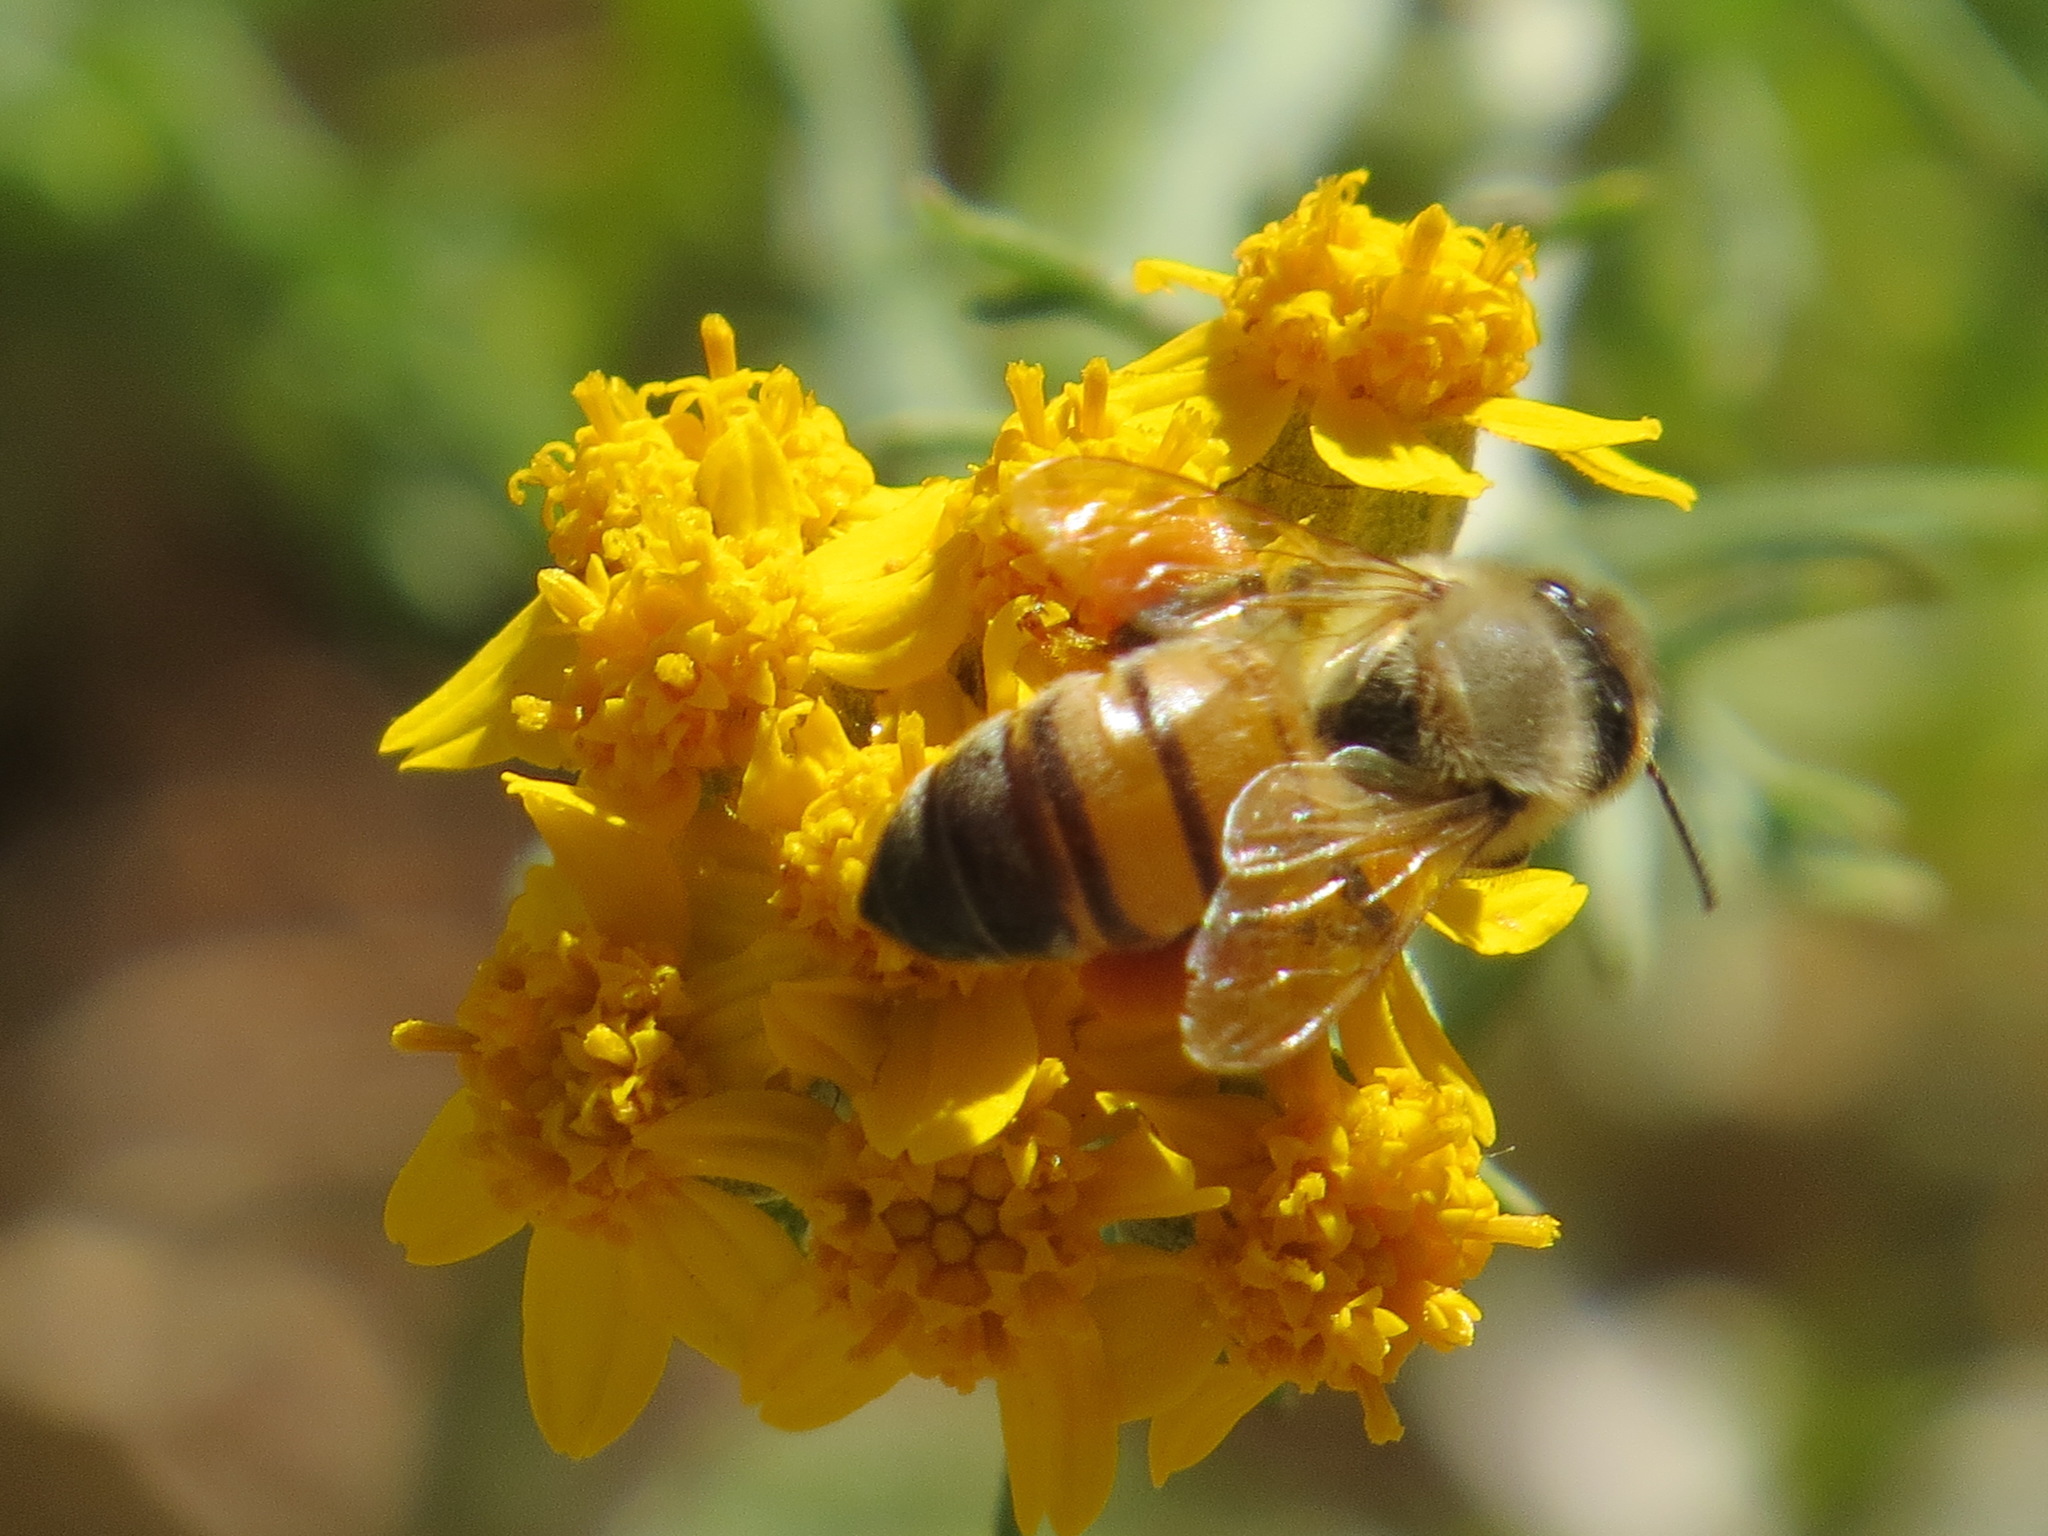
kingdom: Animalia
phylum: Arthropoda
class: Insecta
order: Hymenoptera
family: Apidae
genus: Apis
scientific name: Apis mellifera
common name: Honey bee
